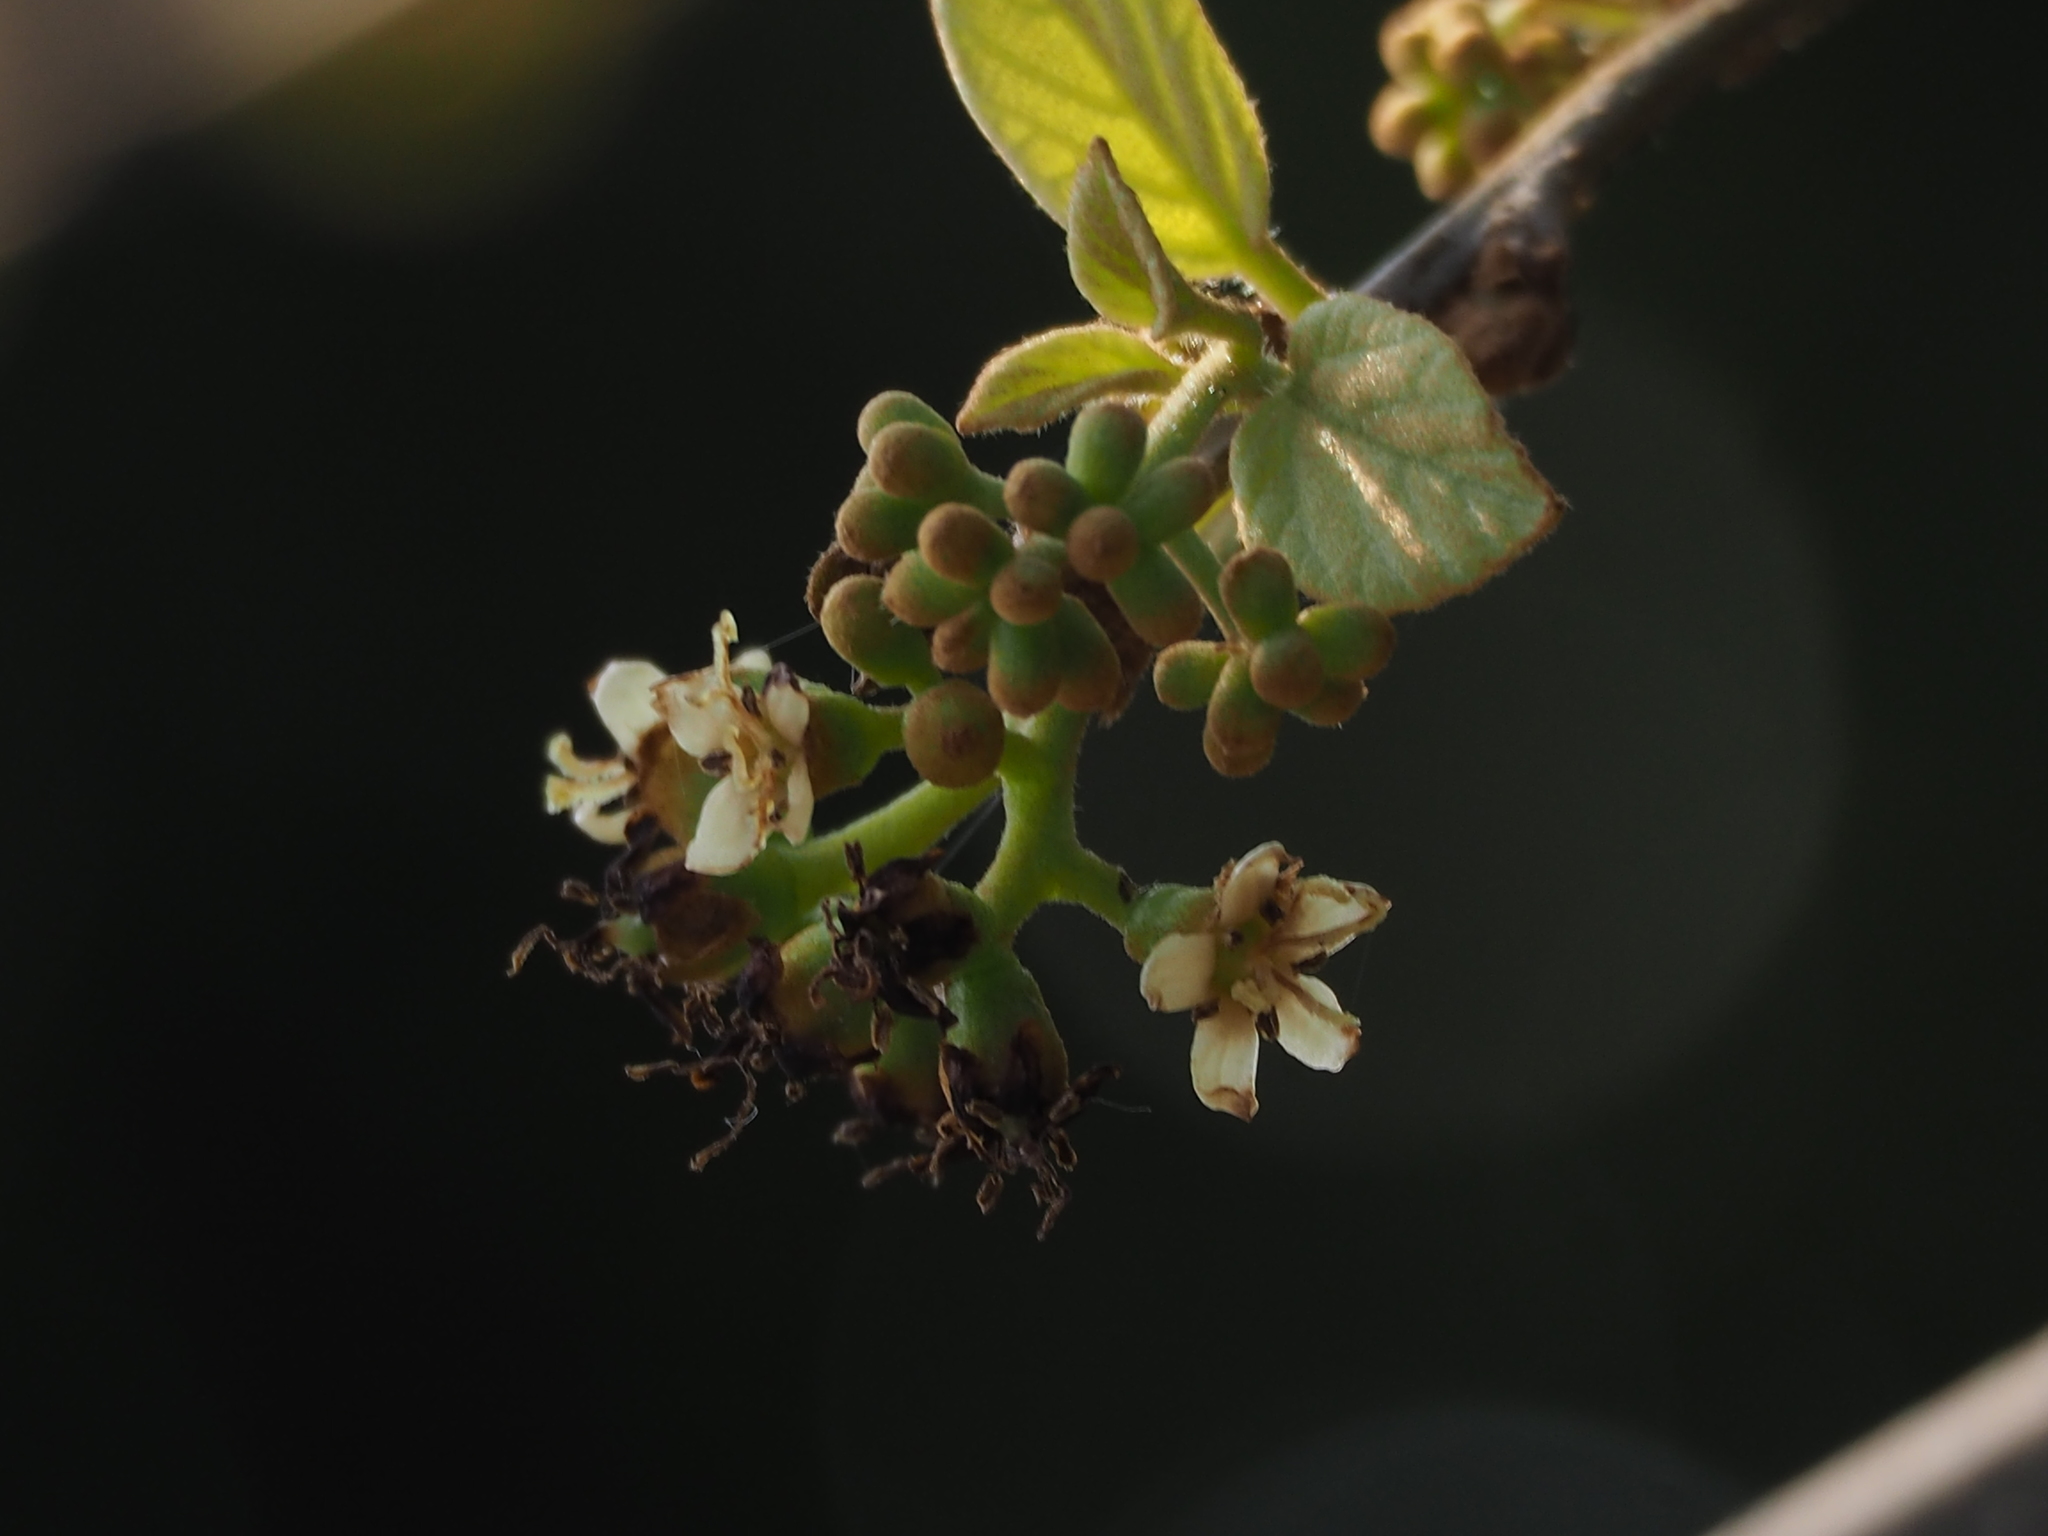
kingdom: Plantae
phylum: Tracheophyta
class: Magnoliopsida
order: Boraginales
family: Cordiaceae
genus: Cordia
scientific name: Cordia dichotoma
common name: Fragrant manjack
